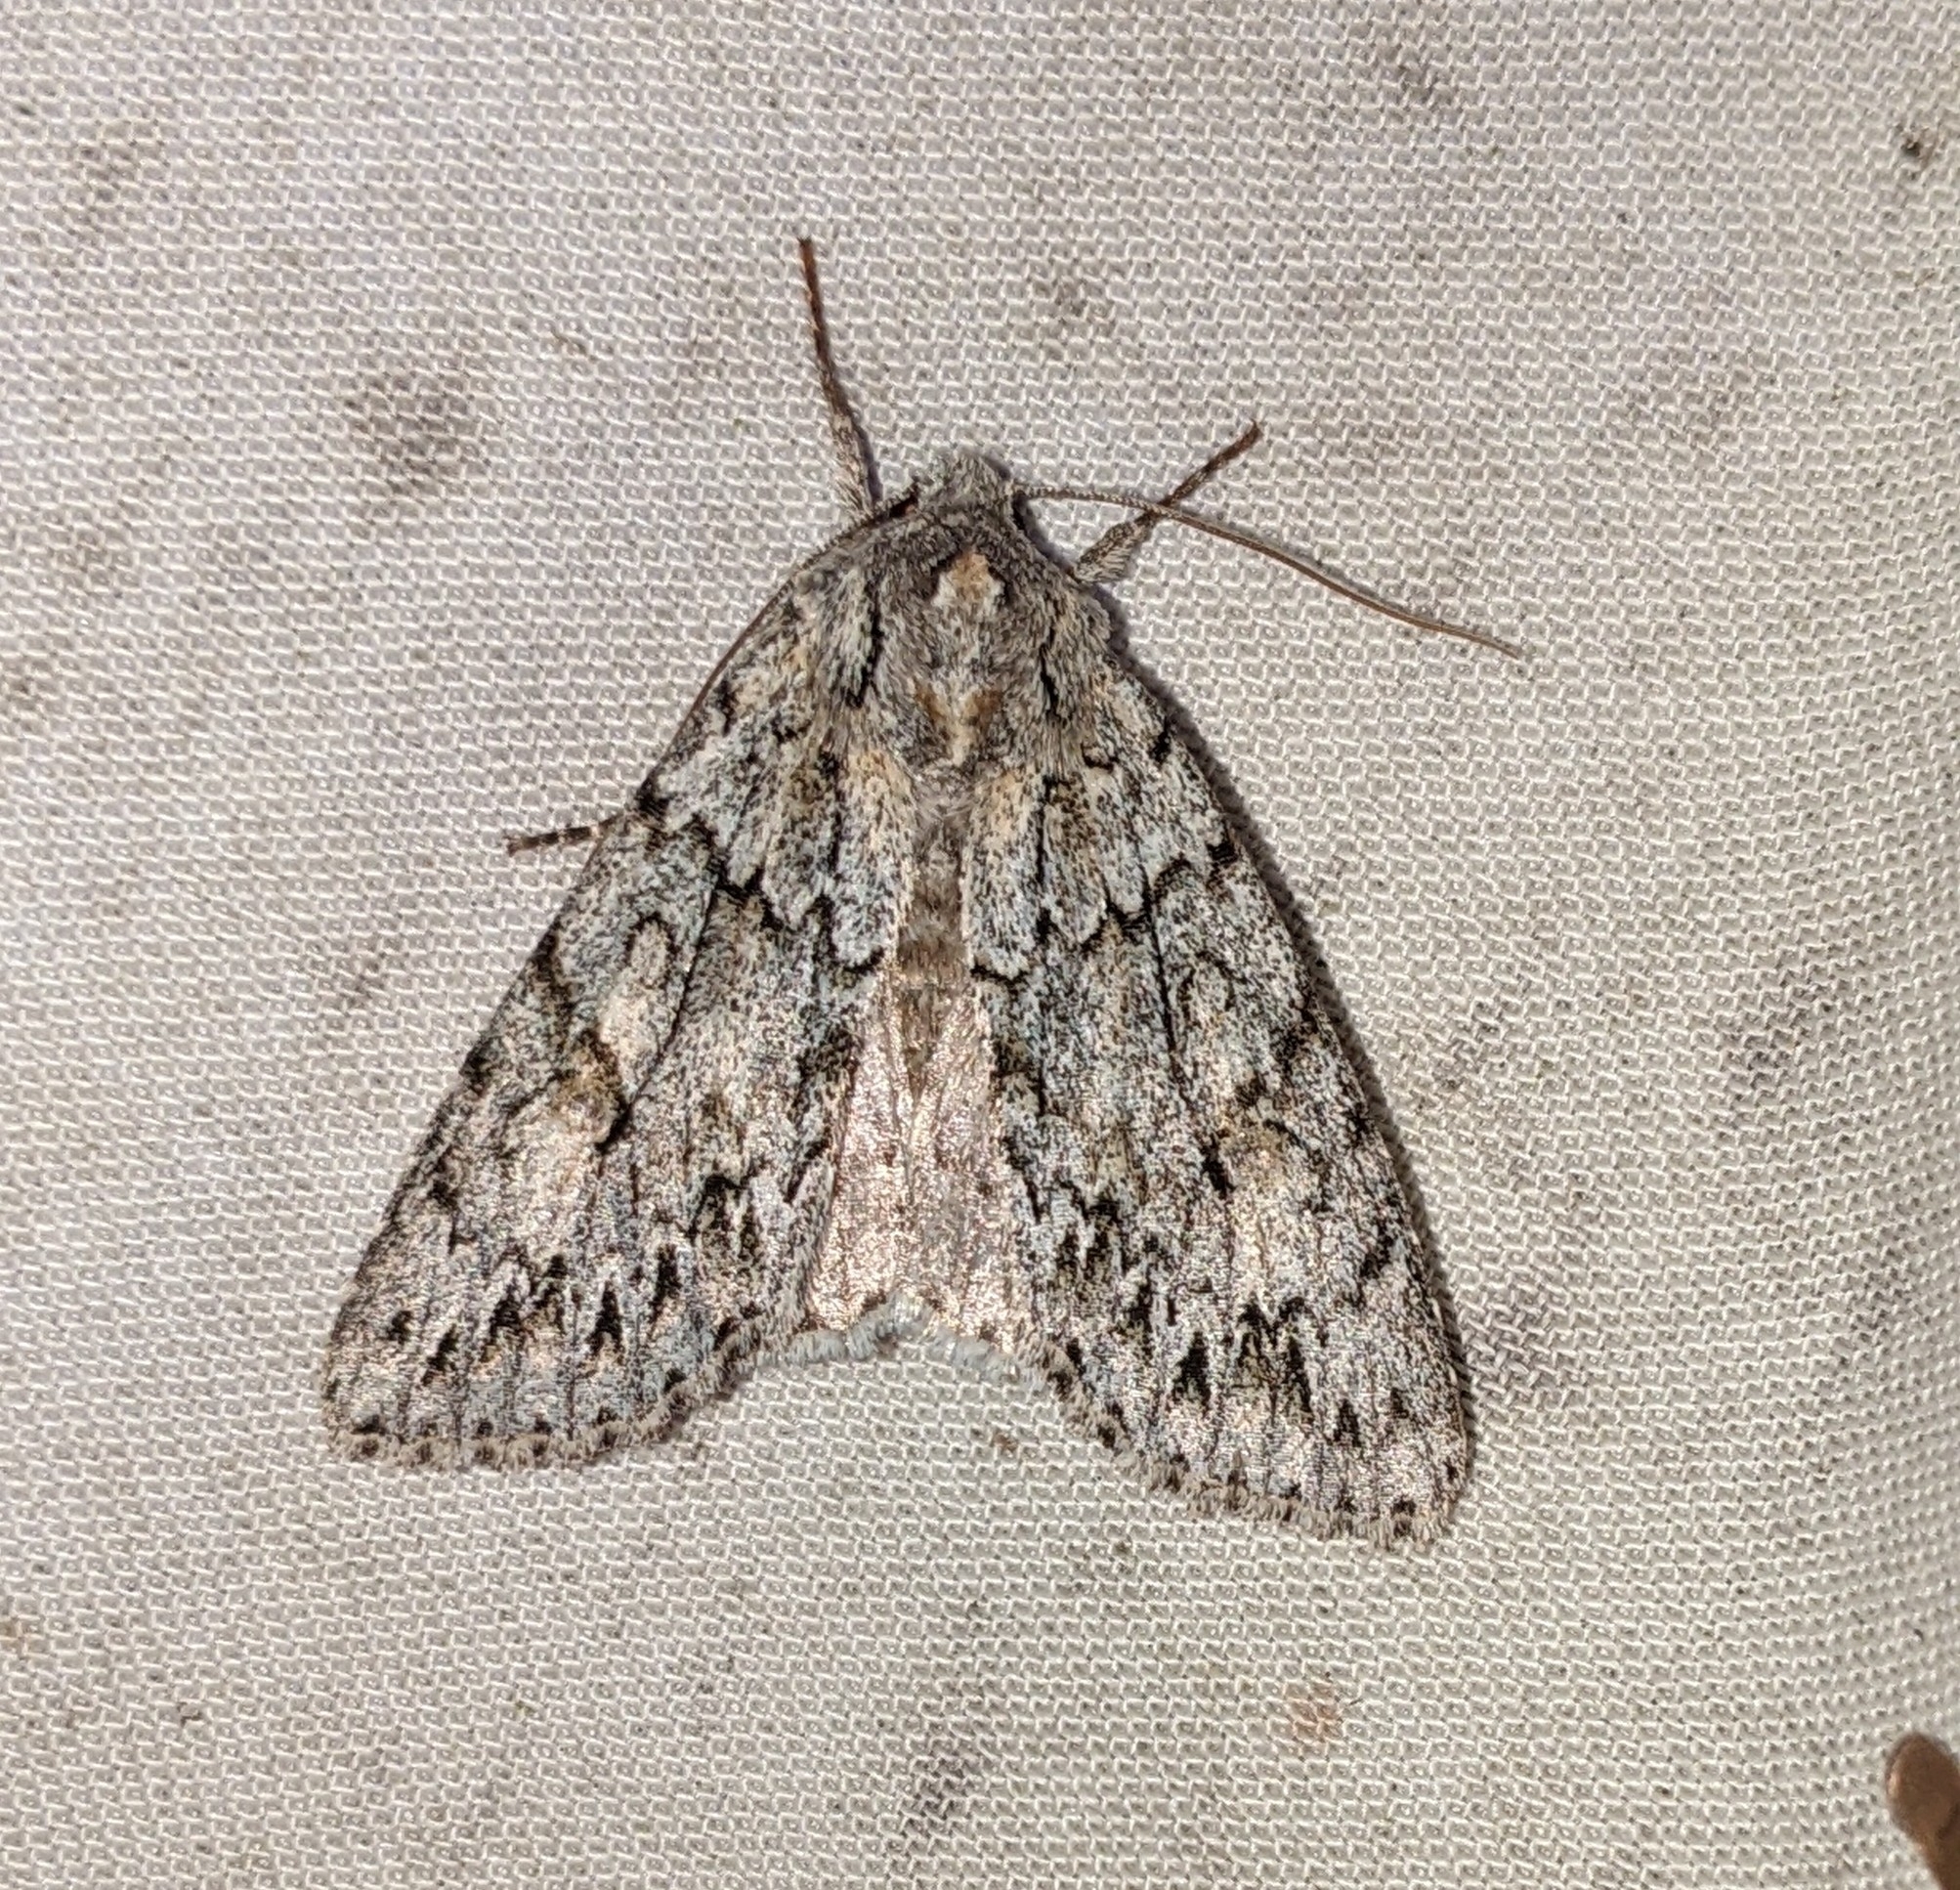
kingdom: Animalia
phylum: Arthropoda
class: Insecta
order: Lepidoptera
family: Noctuidae
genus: Andropolia
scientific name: Andropolia aedon
